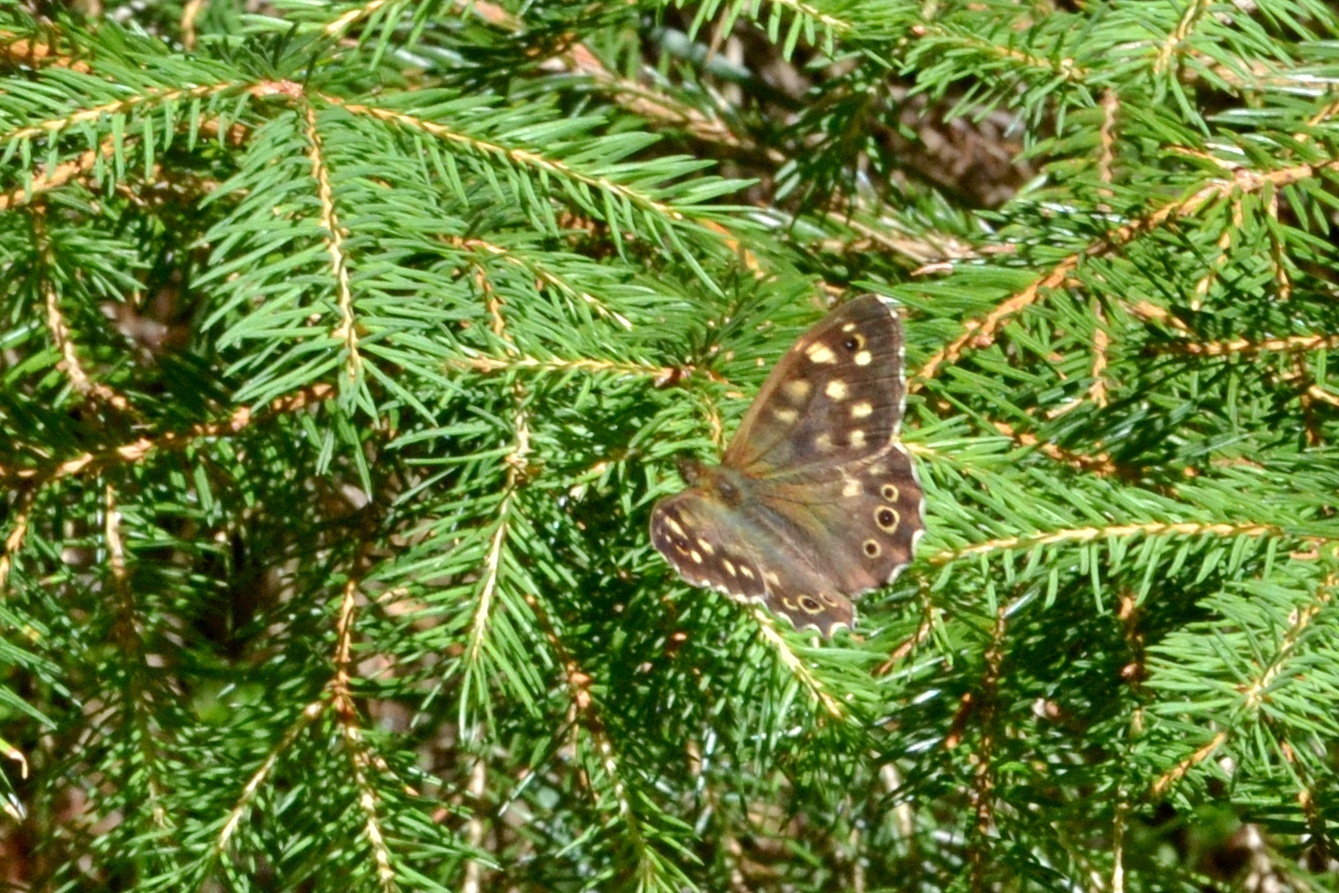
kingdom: Animalia
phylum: Arthropoda
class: Insecta
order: Lepidoptera
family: Nymphalidae
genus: Pararge
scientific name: Pararge aegeria
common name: Speckled wood
